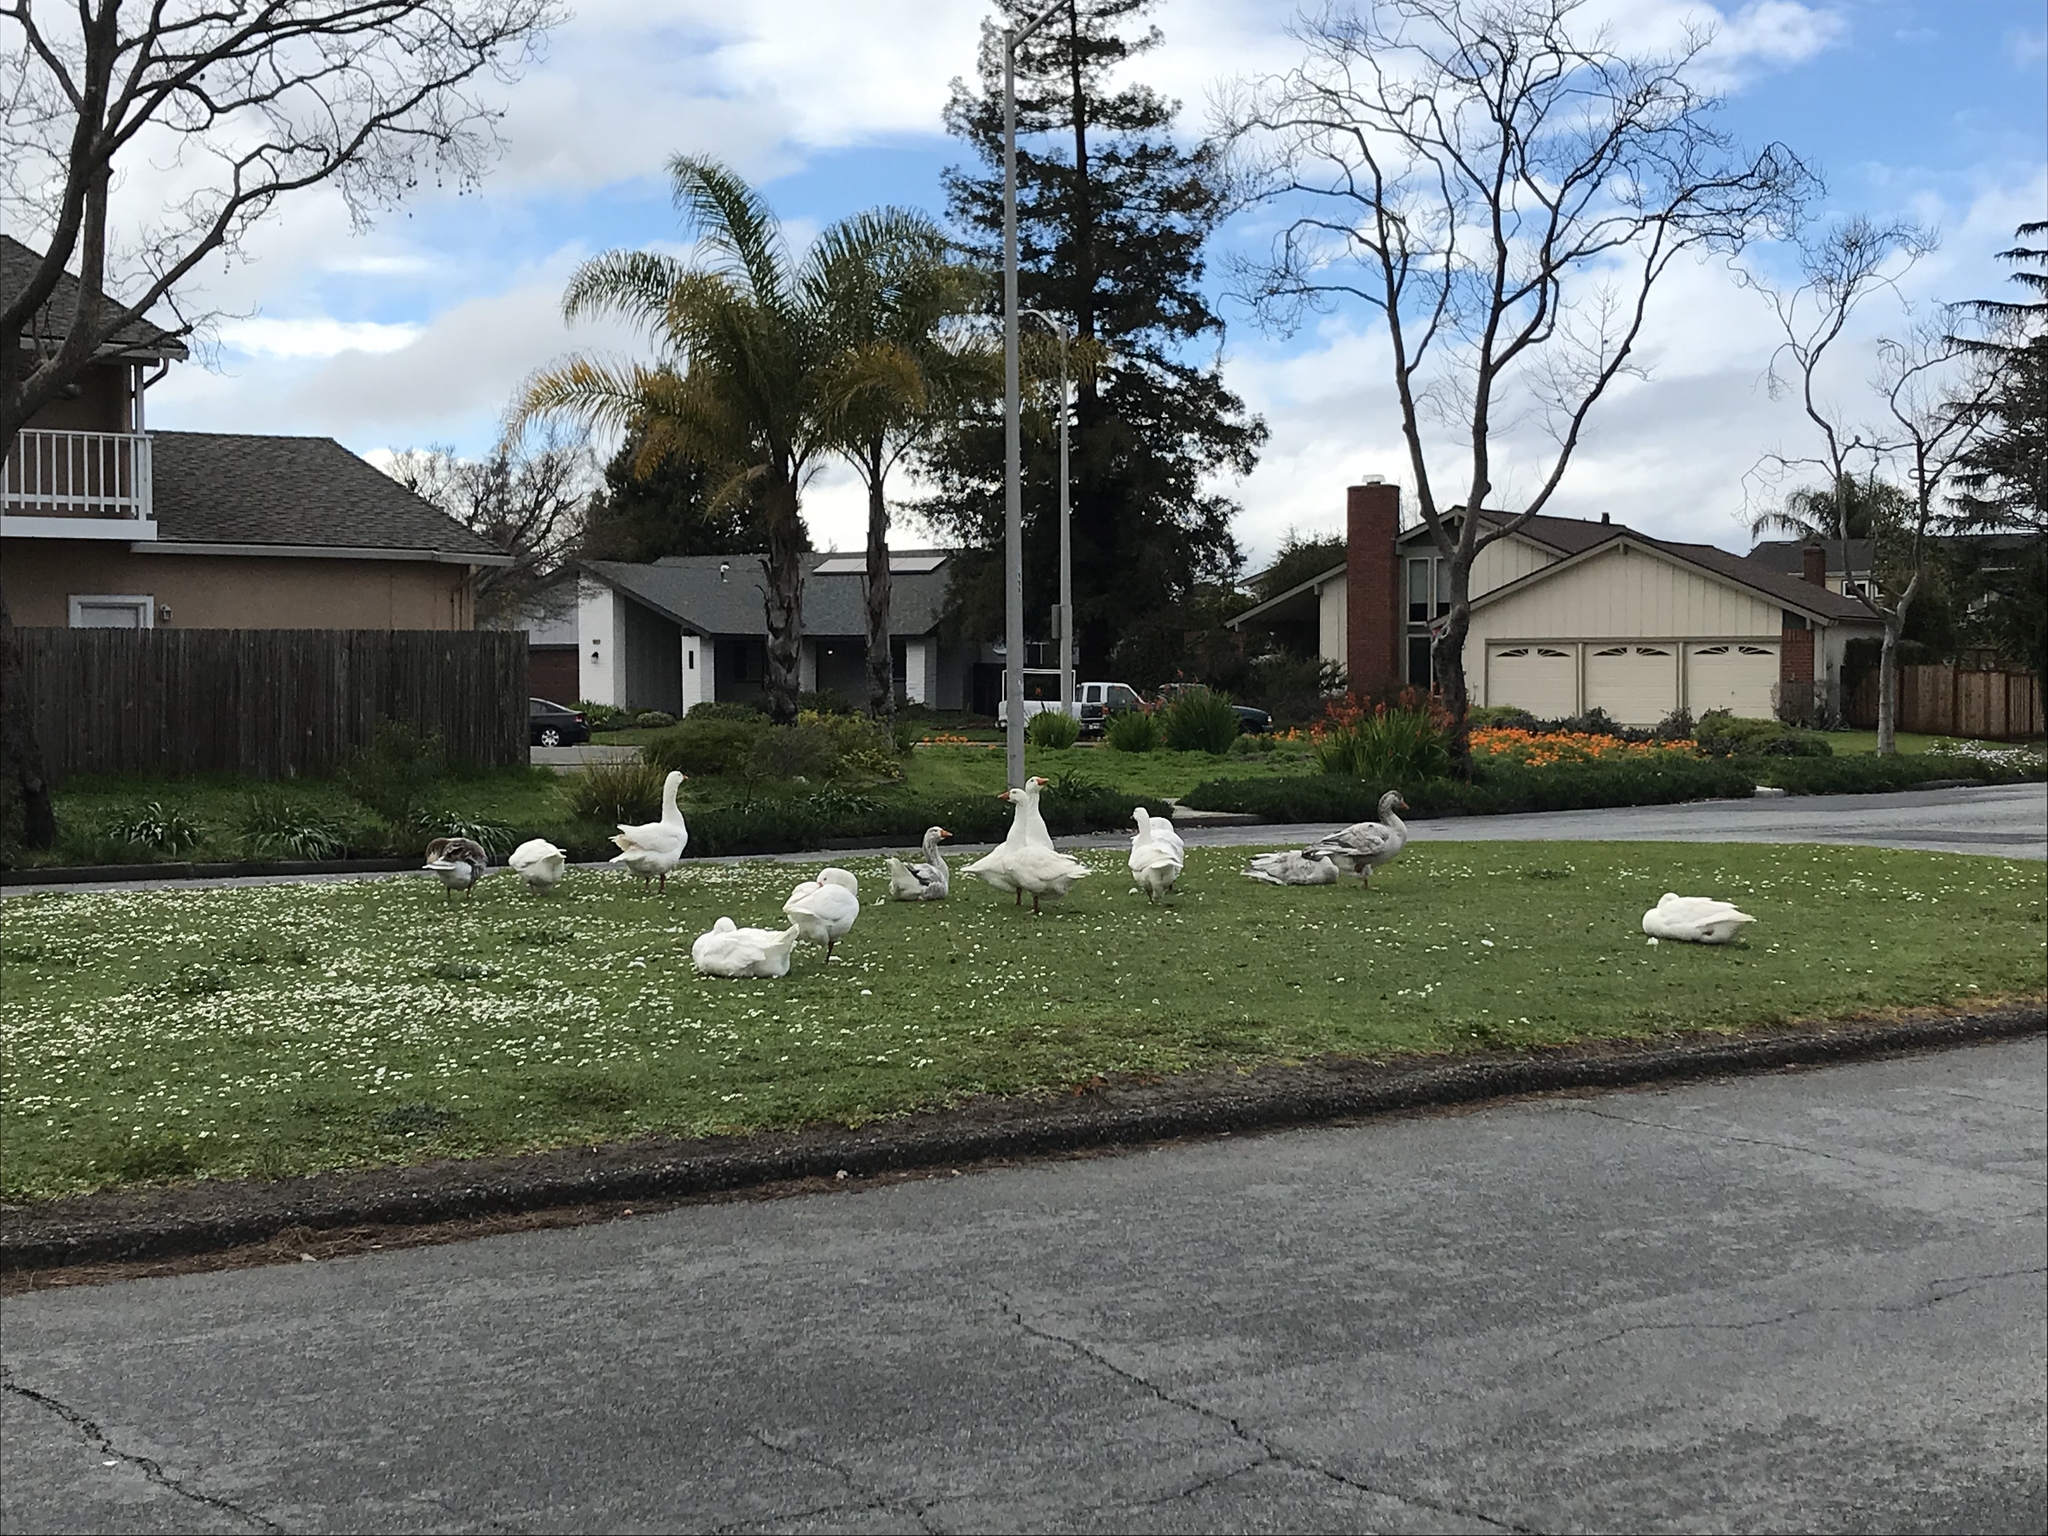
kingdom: Animalia
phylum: Chordata
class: Aves
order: Anseriformes
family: Anatidae
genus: Anser
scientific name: Anser anser
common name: Greylag goose
